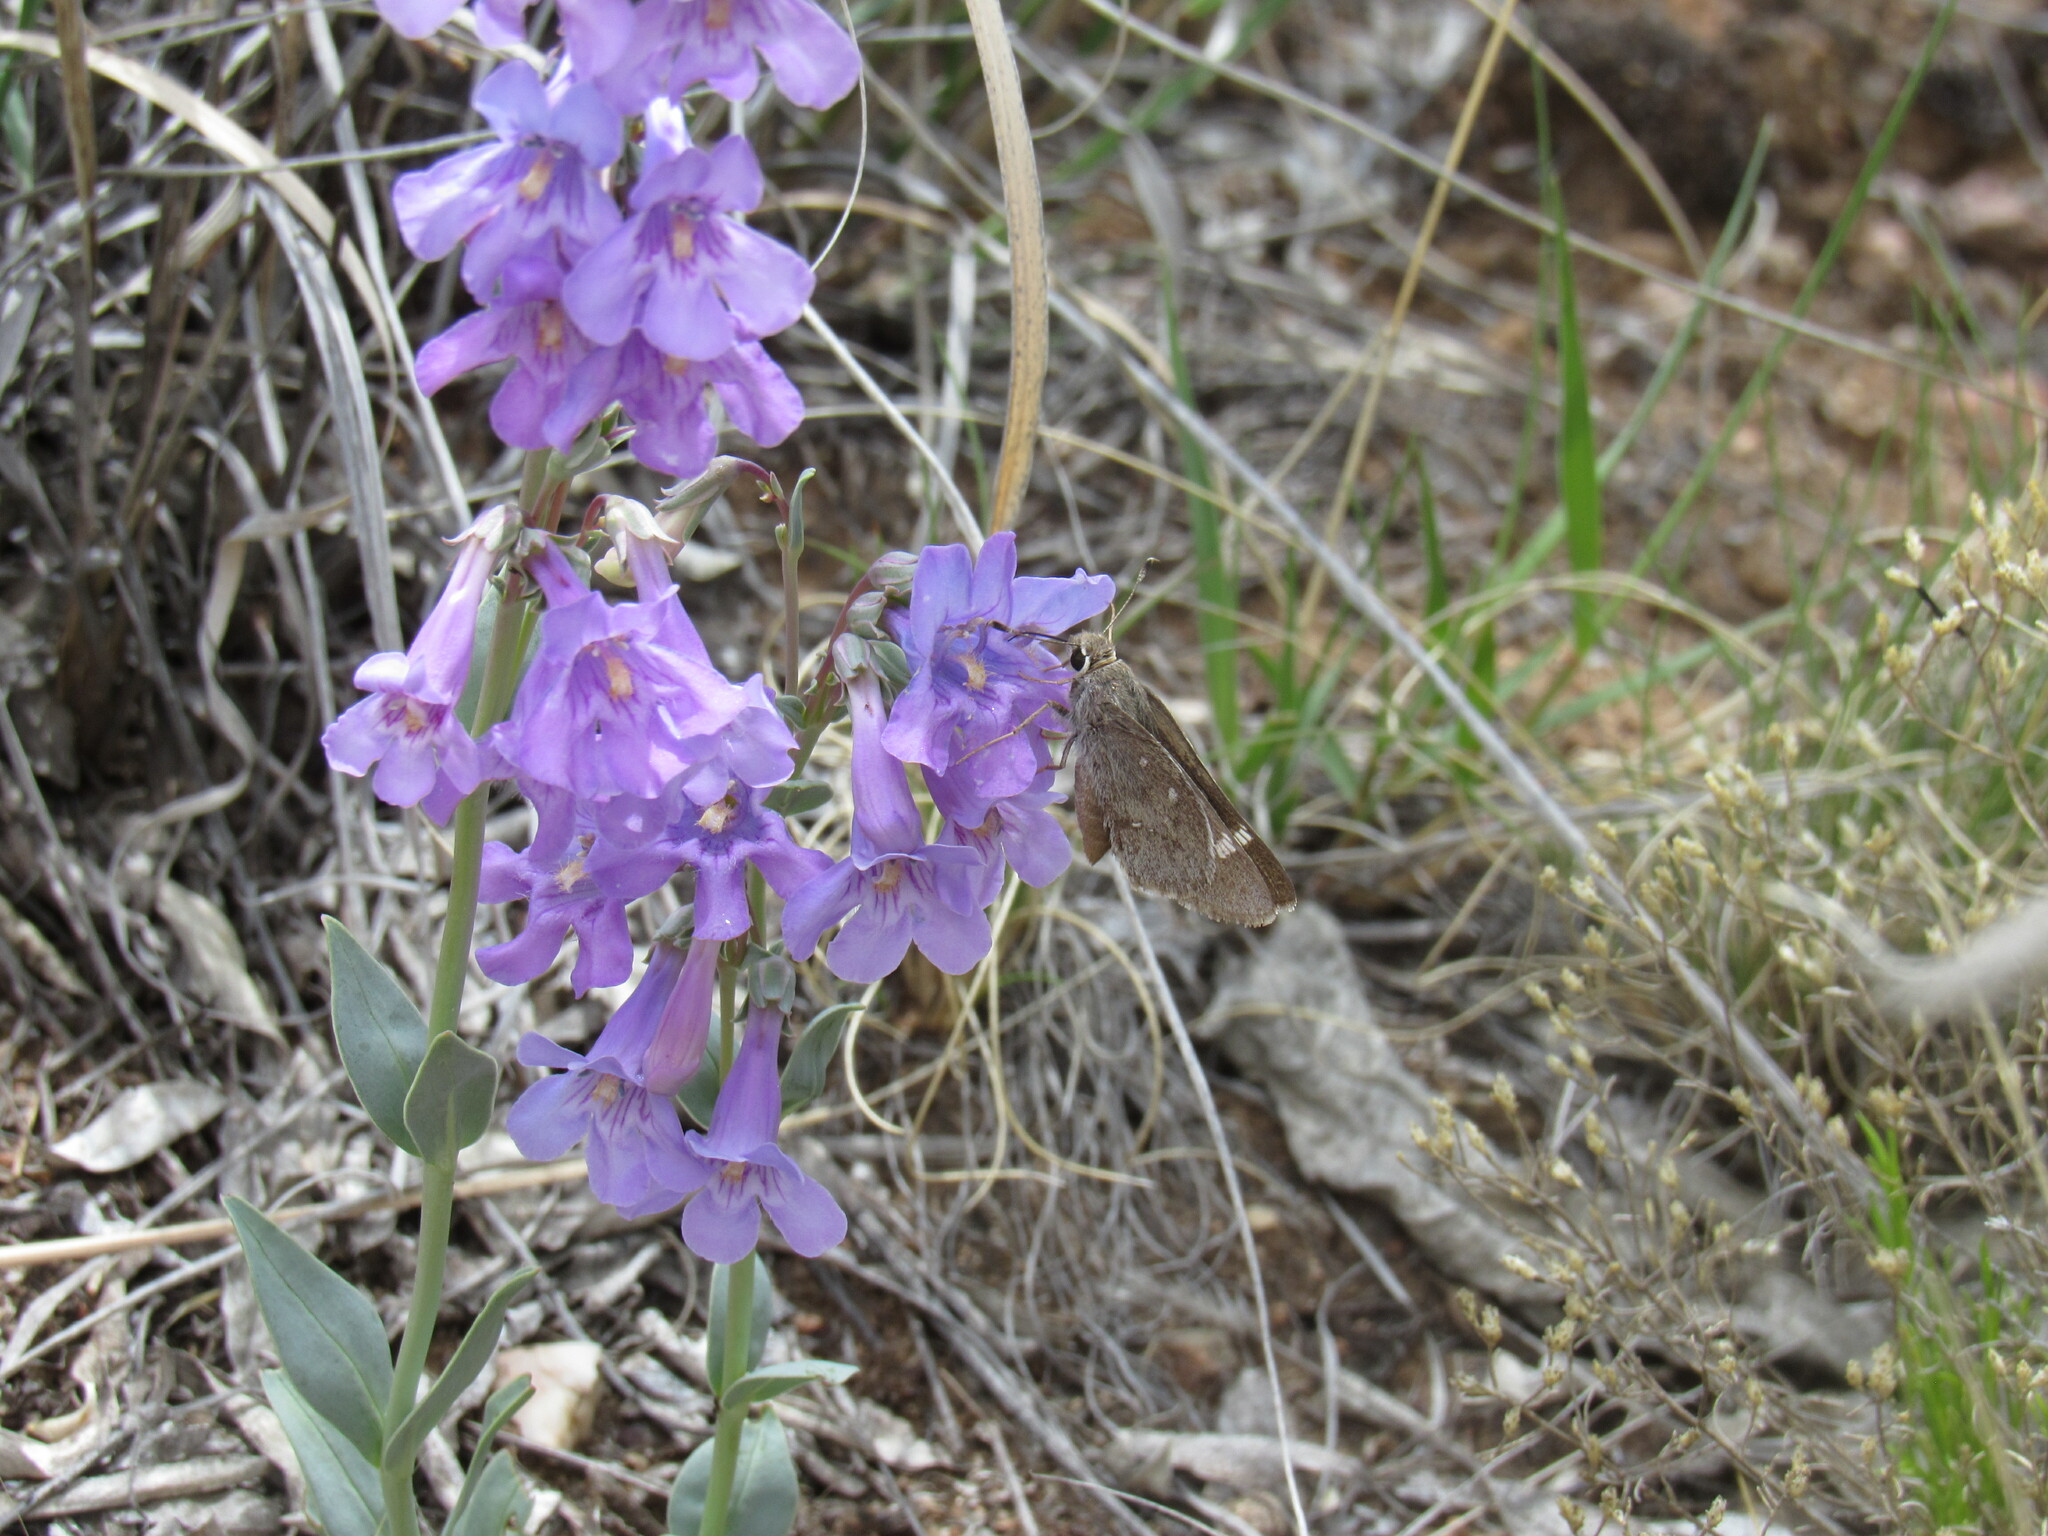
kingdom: Animalia
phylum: Arthropoda
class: Insecta
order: Lepidoptera
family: Hesperiidae
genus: Atrytonopsis
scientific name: Atrytonopsis vierecki
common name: Viereck's skipper
